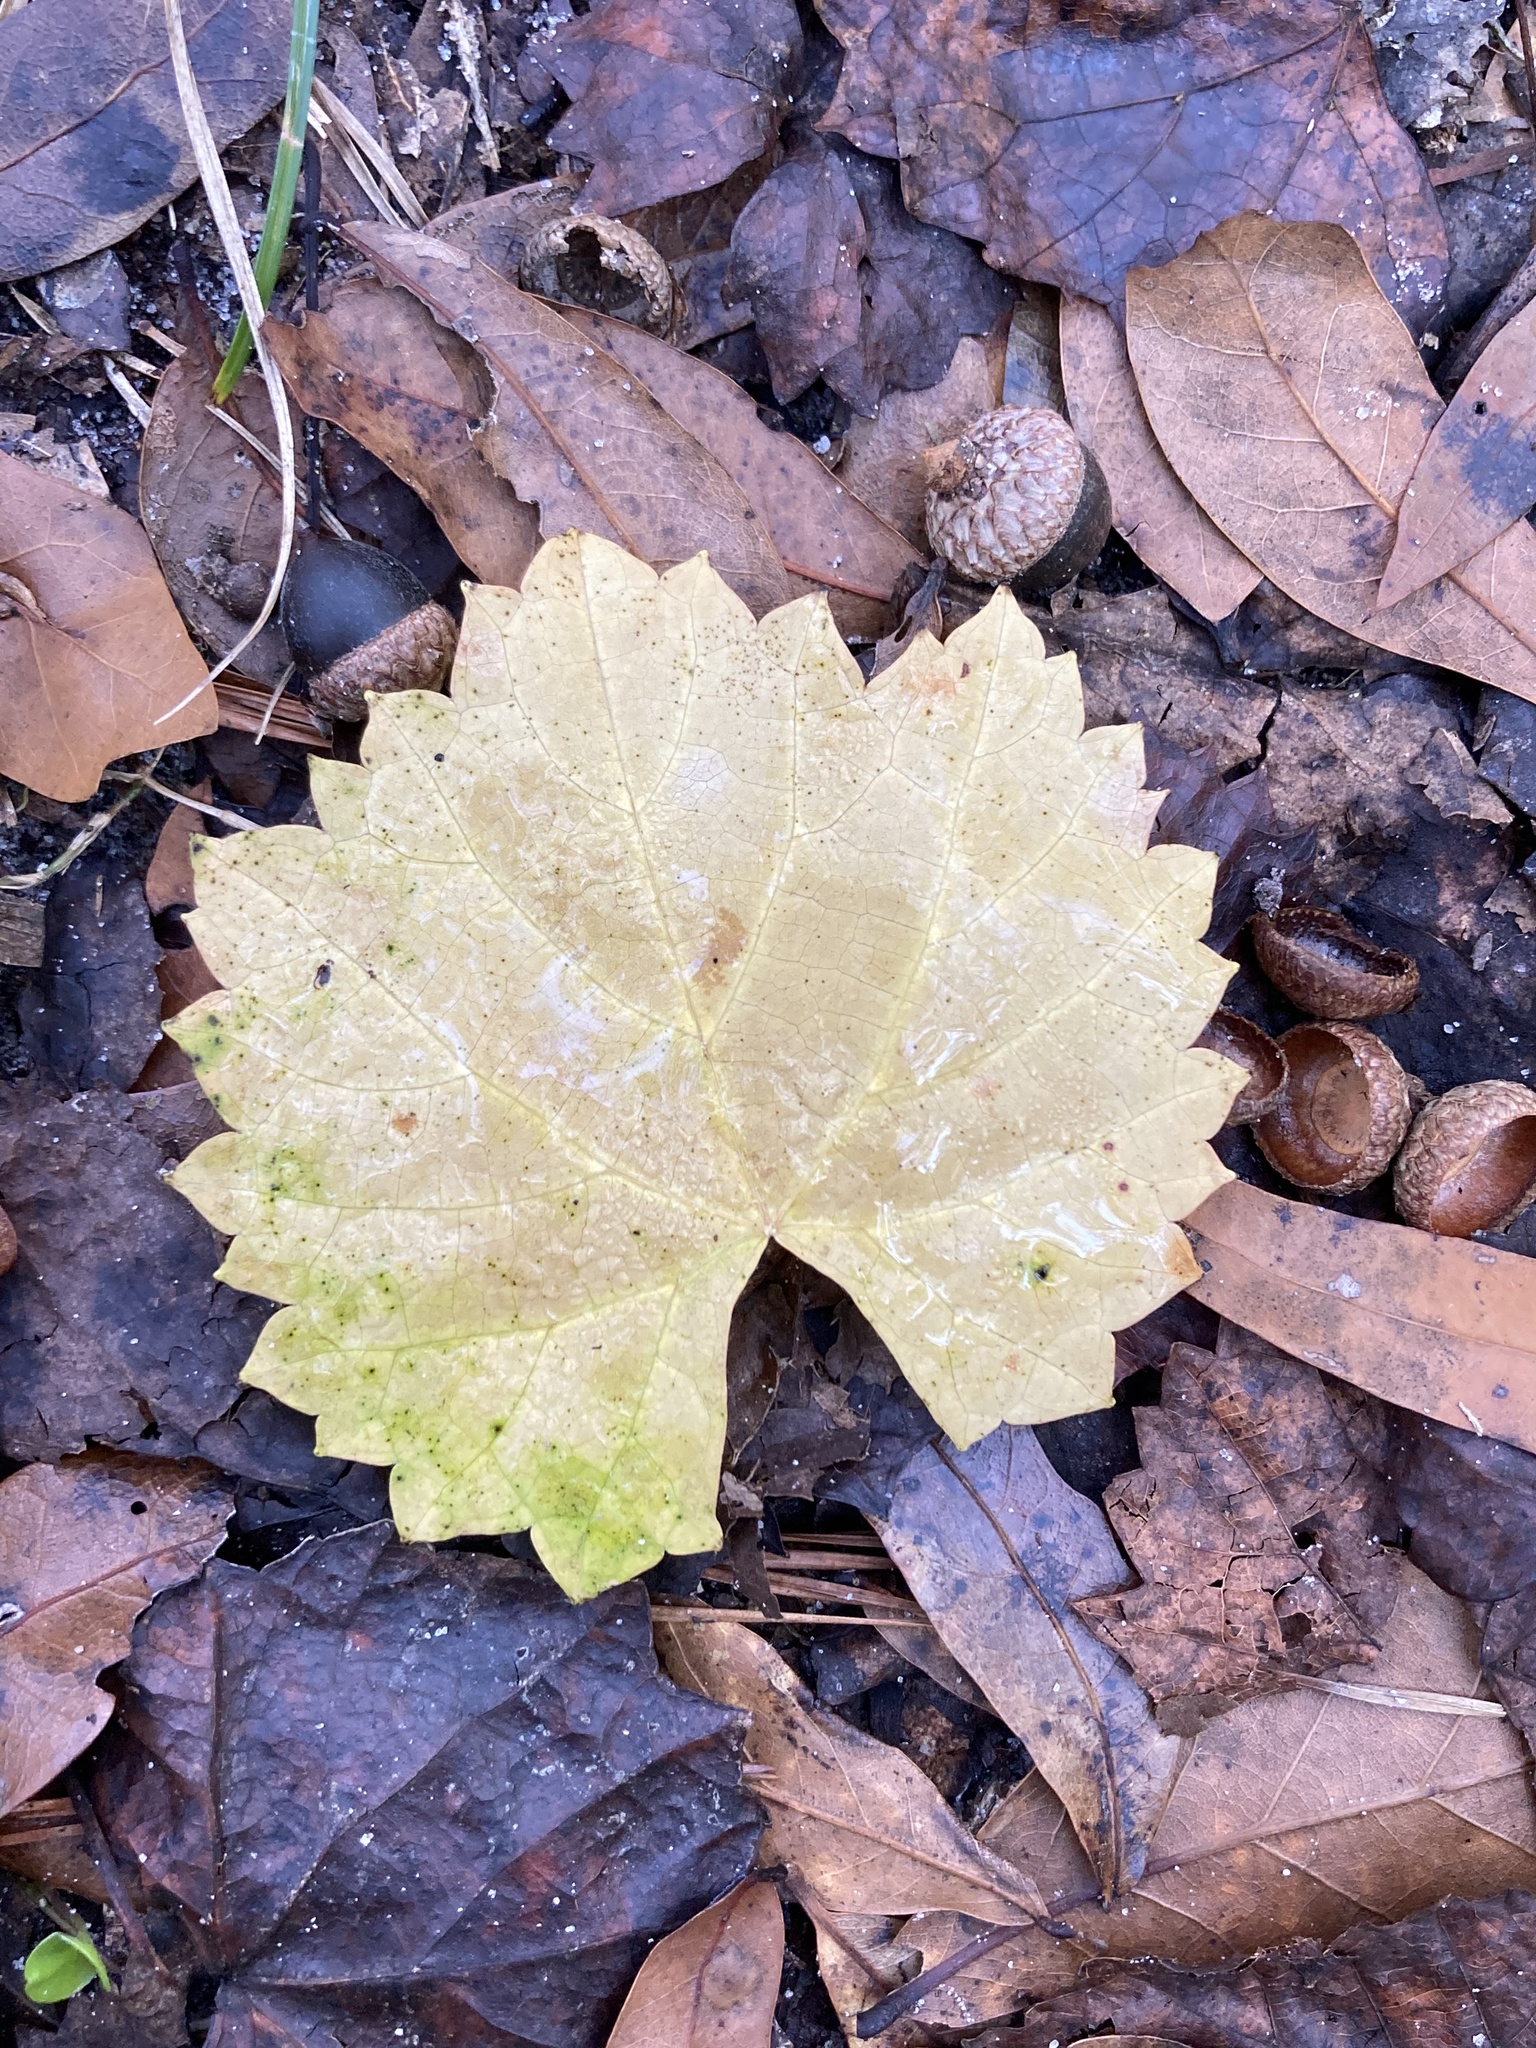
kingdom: Plantae
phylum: Tracheophyta
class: Magnoliopsida
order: Vitales
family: Vitaceae
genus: Vitis
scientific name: Vitis rotundifolia
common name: Muscadine grape
